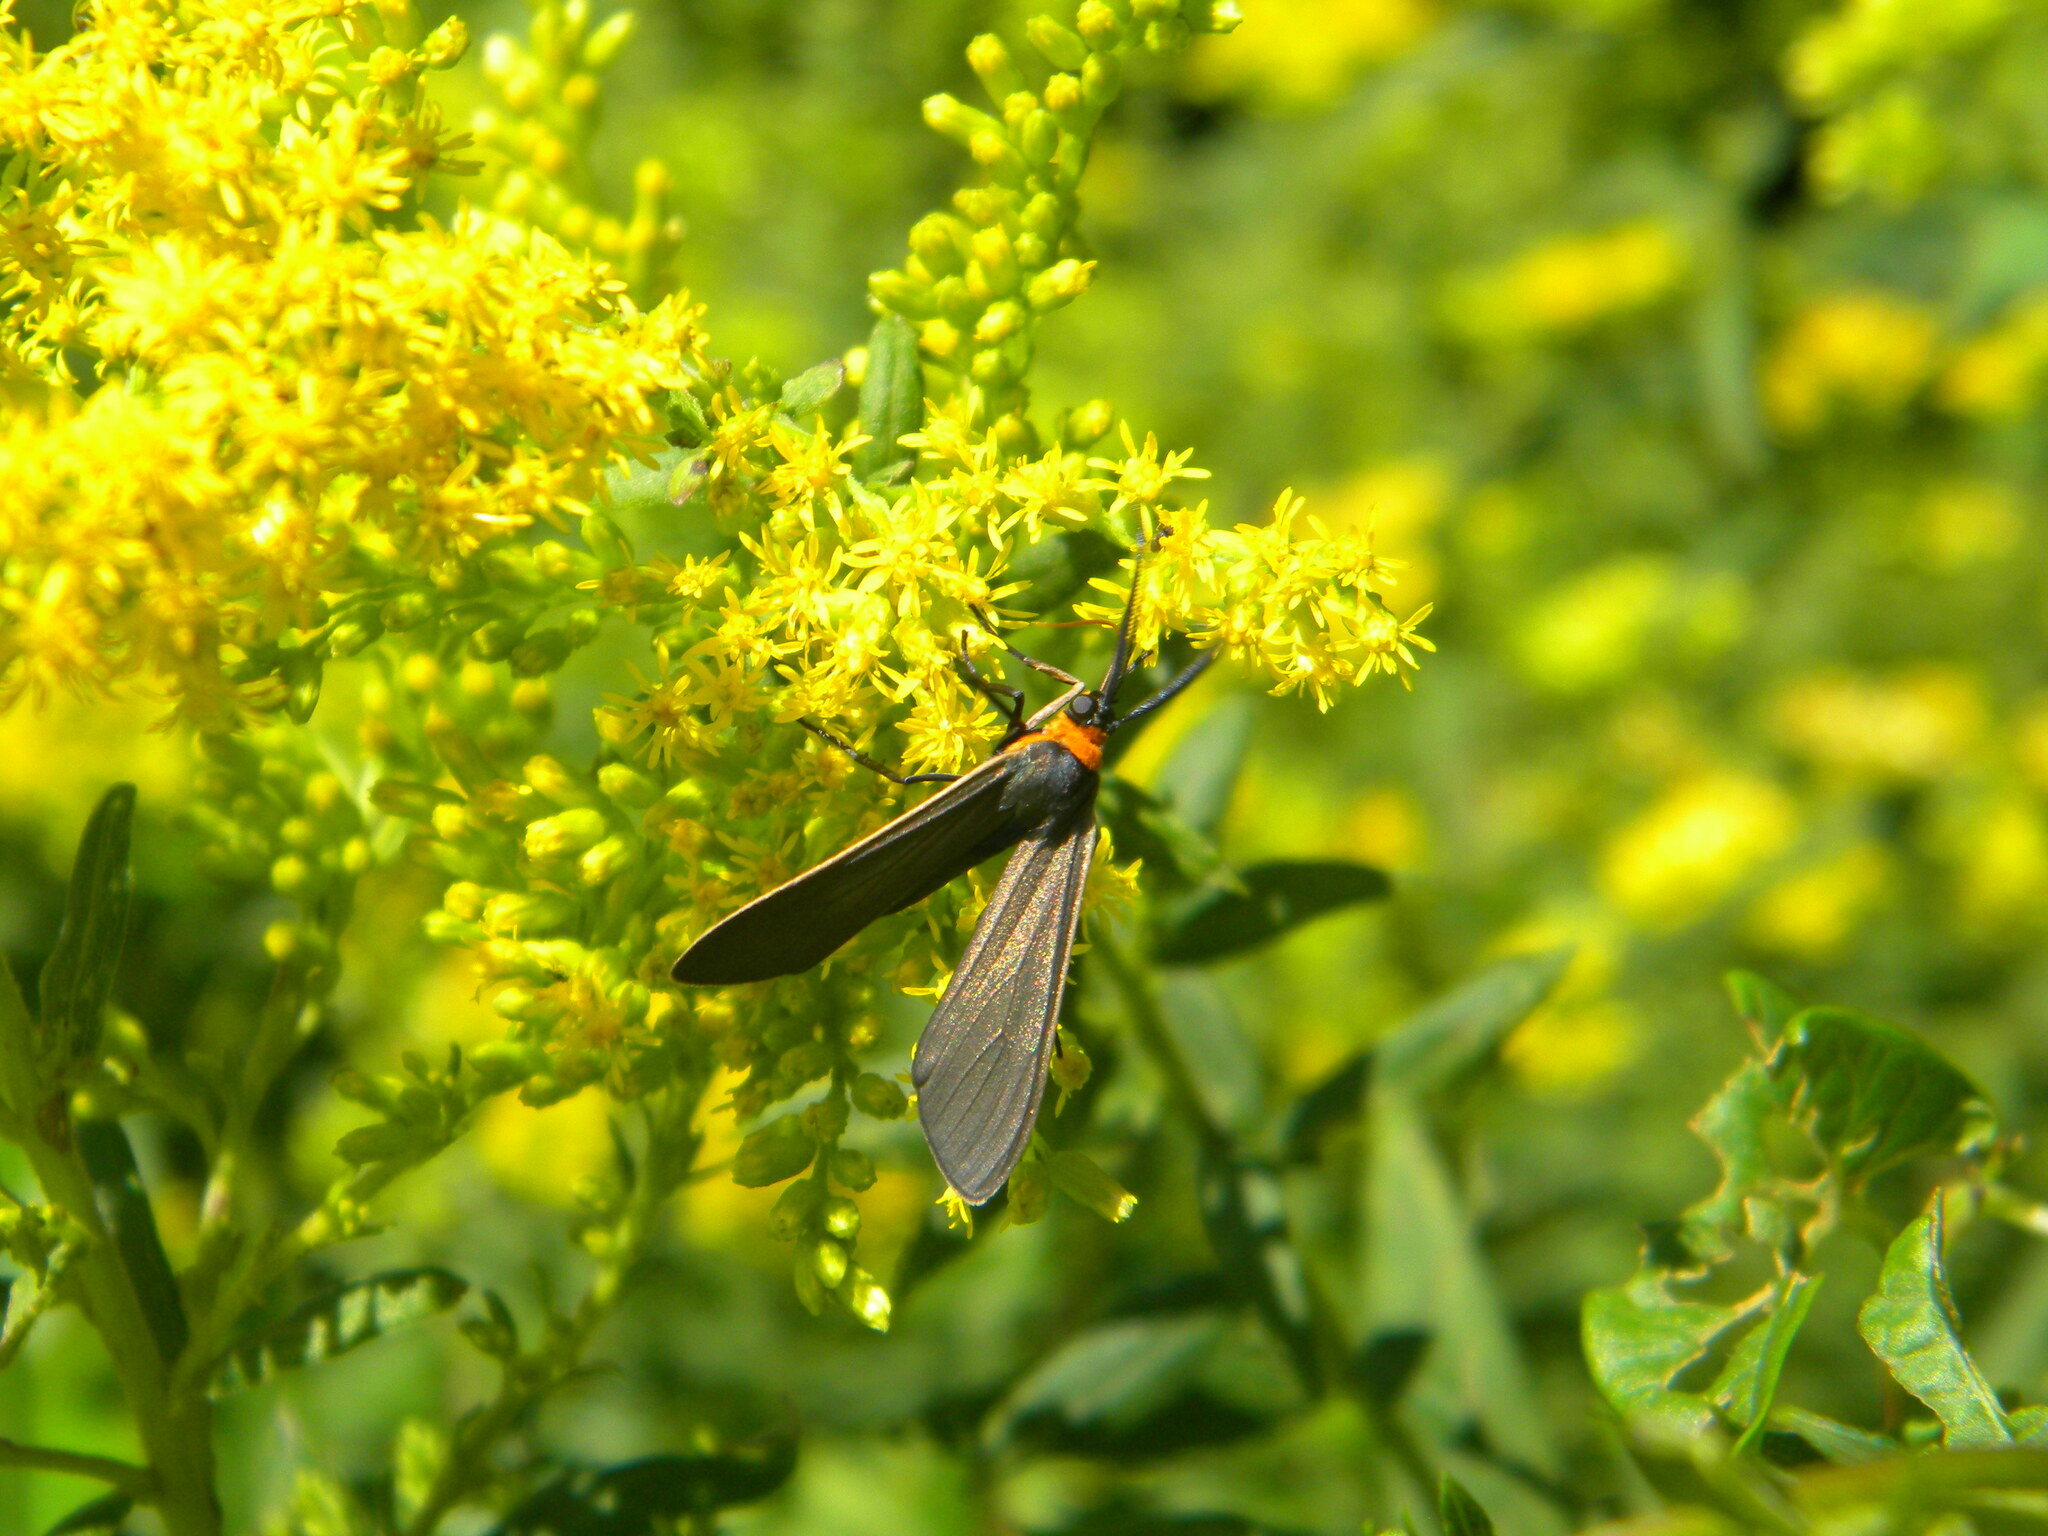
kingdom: Animalia
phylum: Arthropoda
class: Insecta
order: Lepidoptera
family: Erebidae
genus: Cisseps
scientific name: Cisseps fulvicollis
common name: Yellow-collared scape moth
